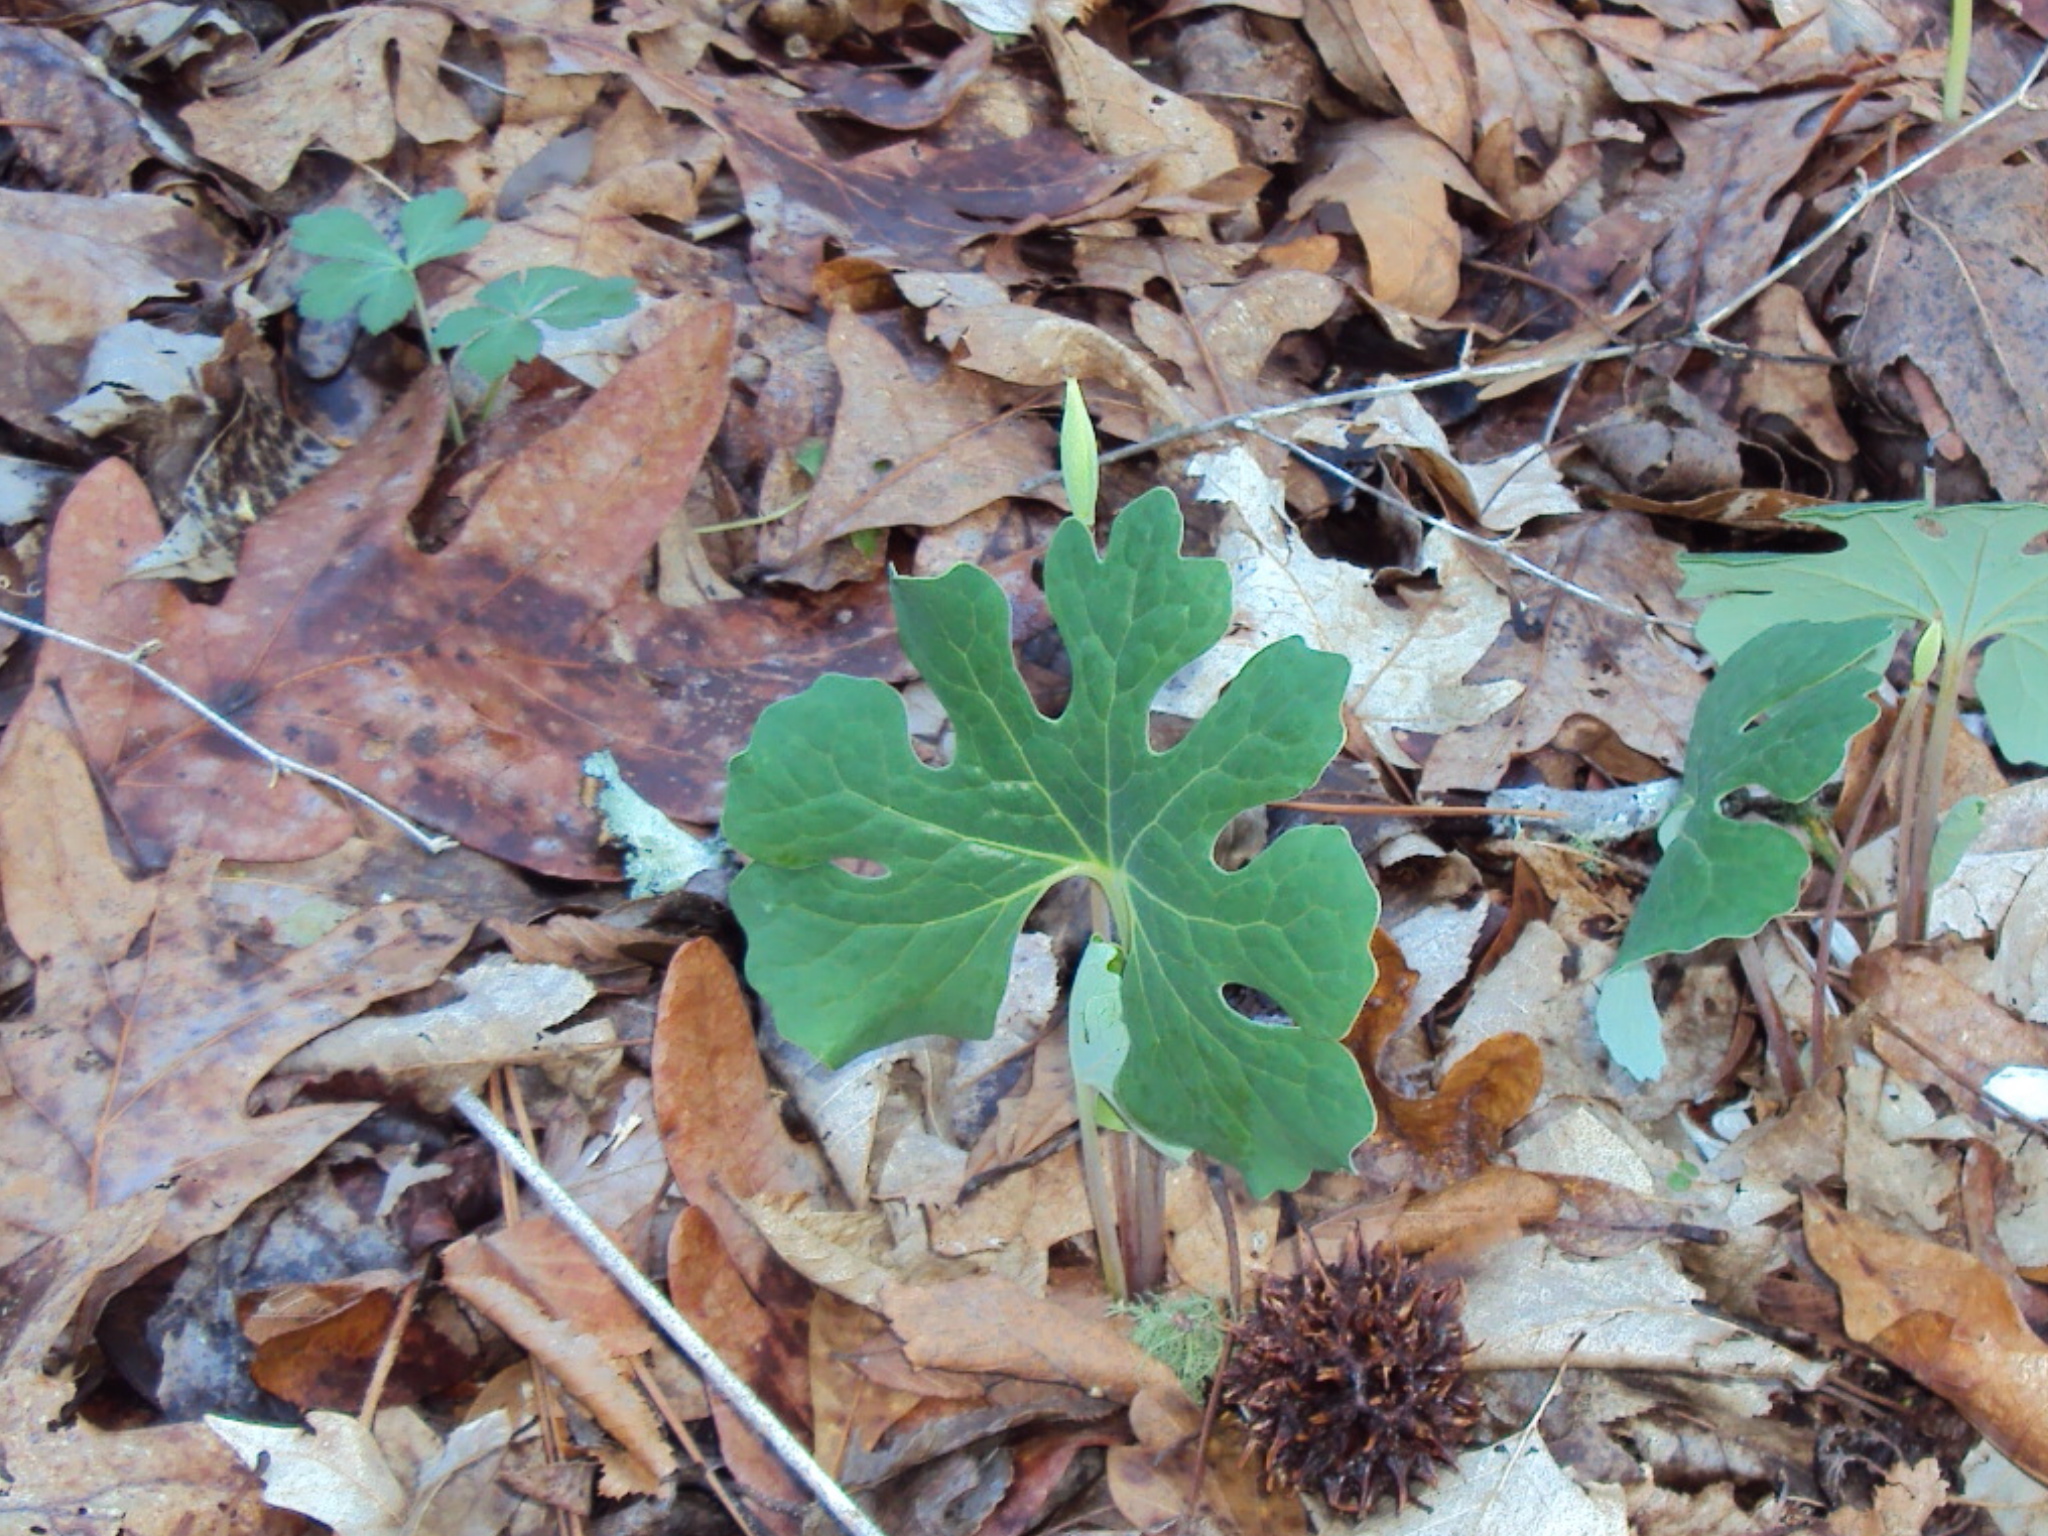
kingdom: Plantae
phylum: Tracheophyta
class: Magnoliopsida
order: Ranunculales
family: Papaveraceae
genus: Sanguinaria
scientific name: Sanguinaria canadensis
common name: Bloodroot
